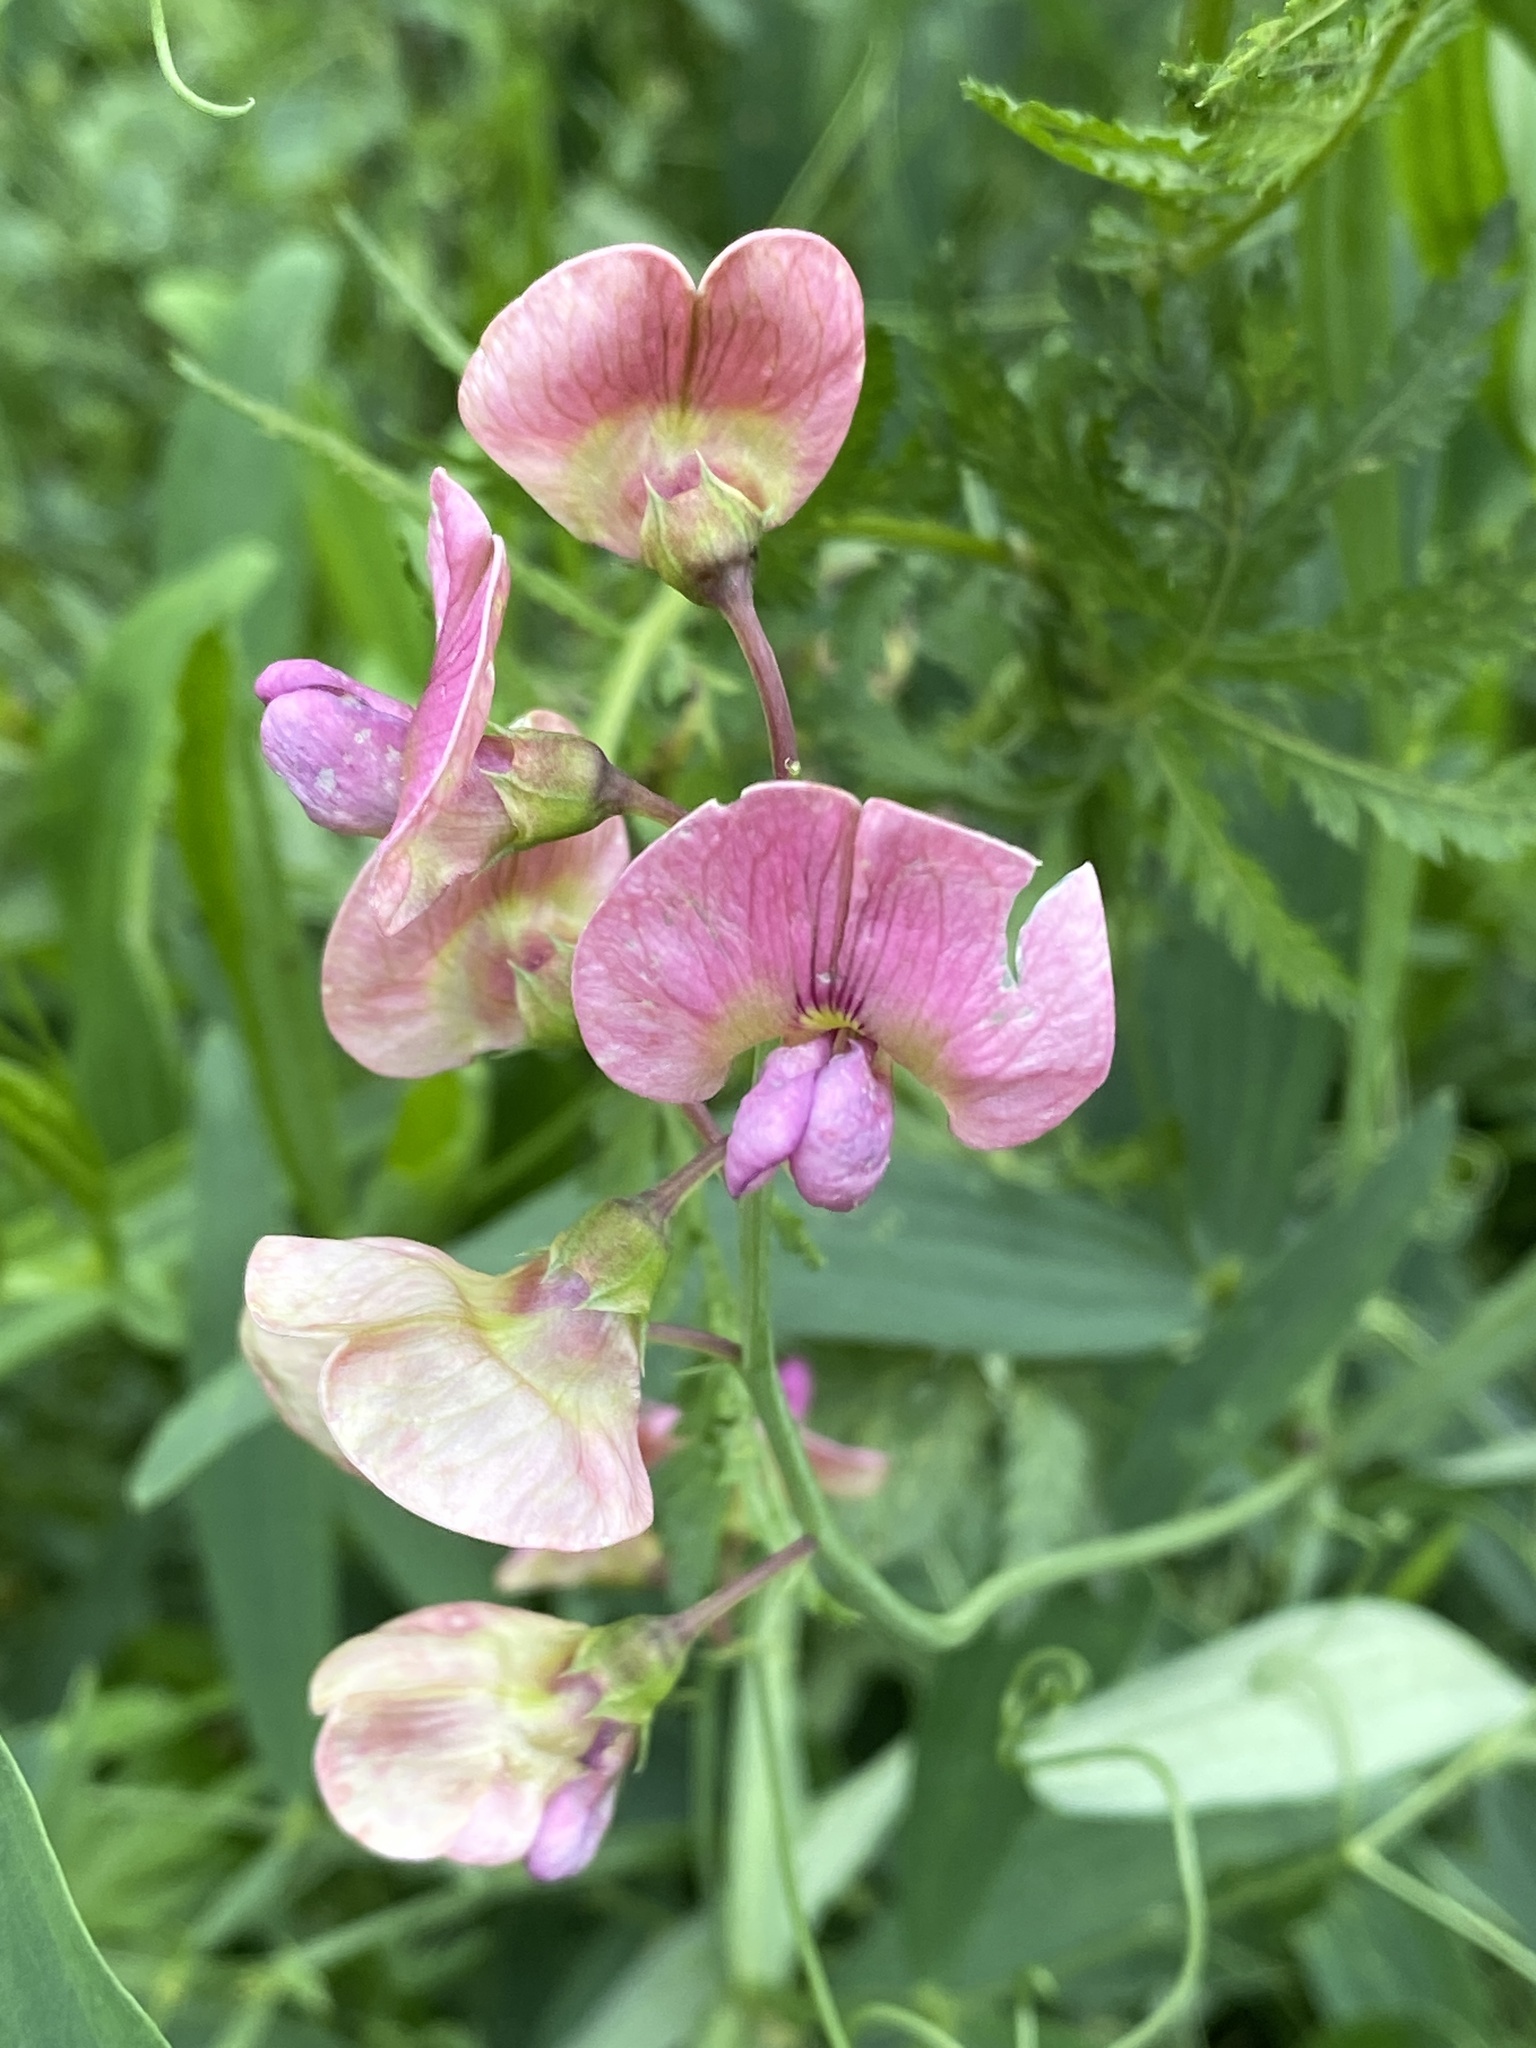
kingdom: Plantae
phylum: Tracheophyta
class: Magnoliopsida
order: Fabales
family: Fabaceae
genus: Lathyrus
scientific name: Lathyrus sylvestris
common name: Flat pea
